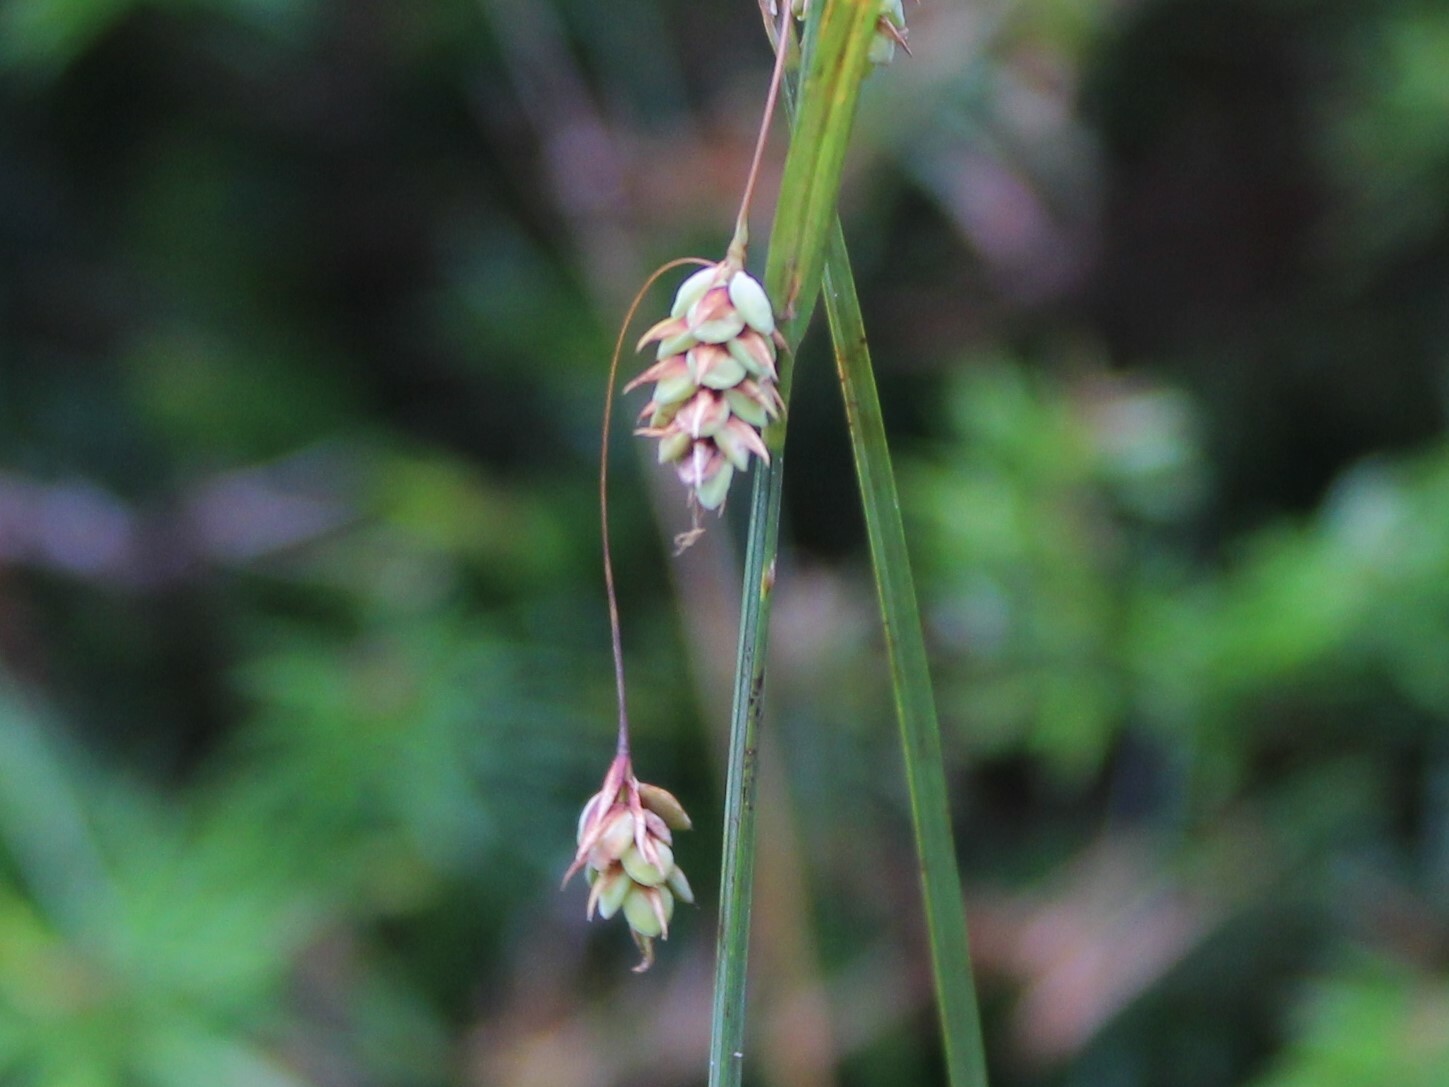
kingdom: Plantae
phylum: Tracheophyta
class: Liliopsida
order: Poales
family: Cyperaceae
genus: Carex
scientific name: Carex magellanica
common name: Bog sedge
